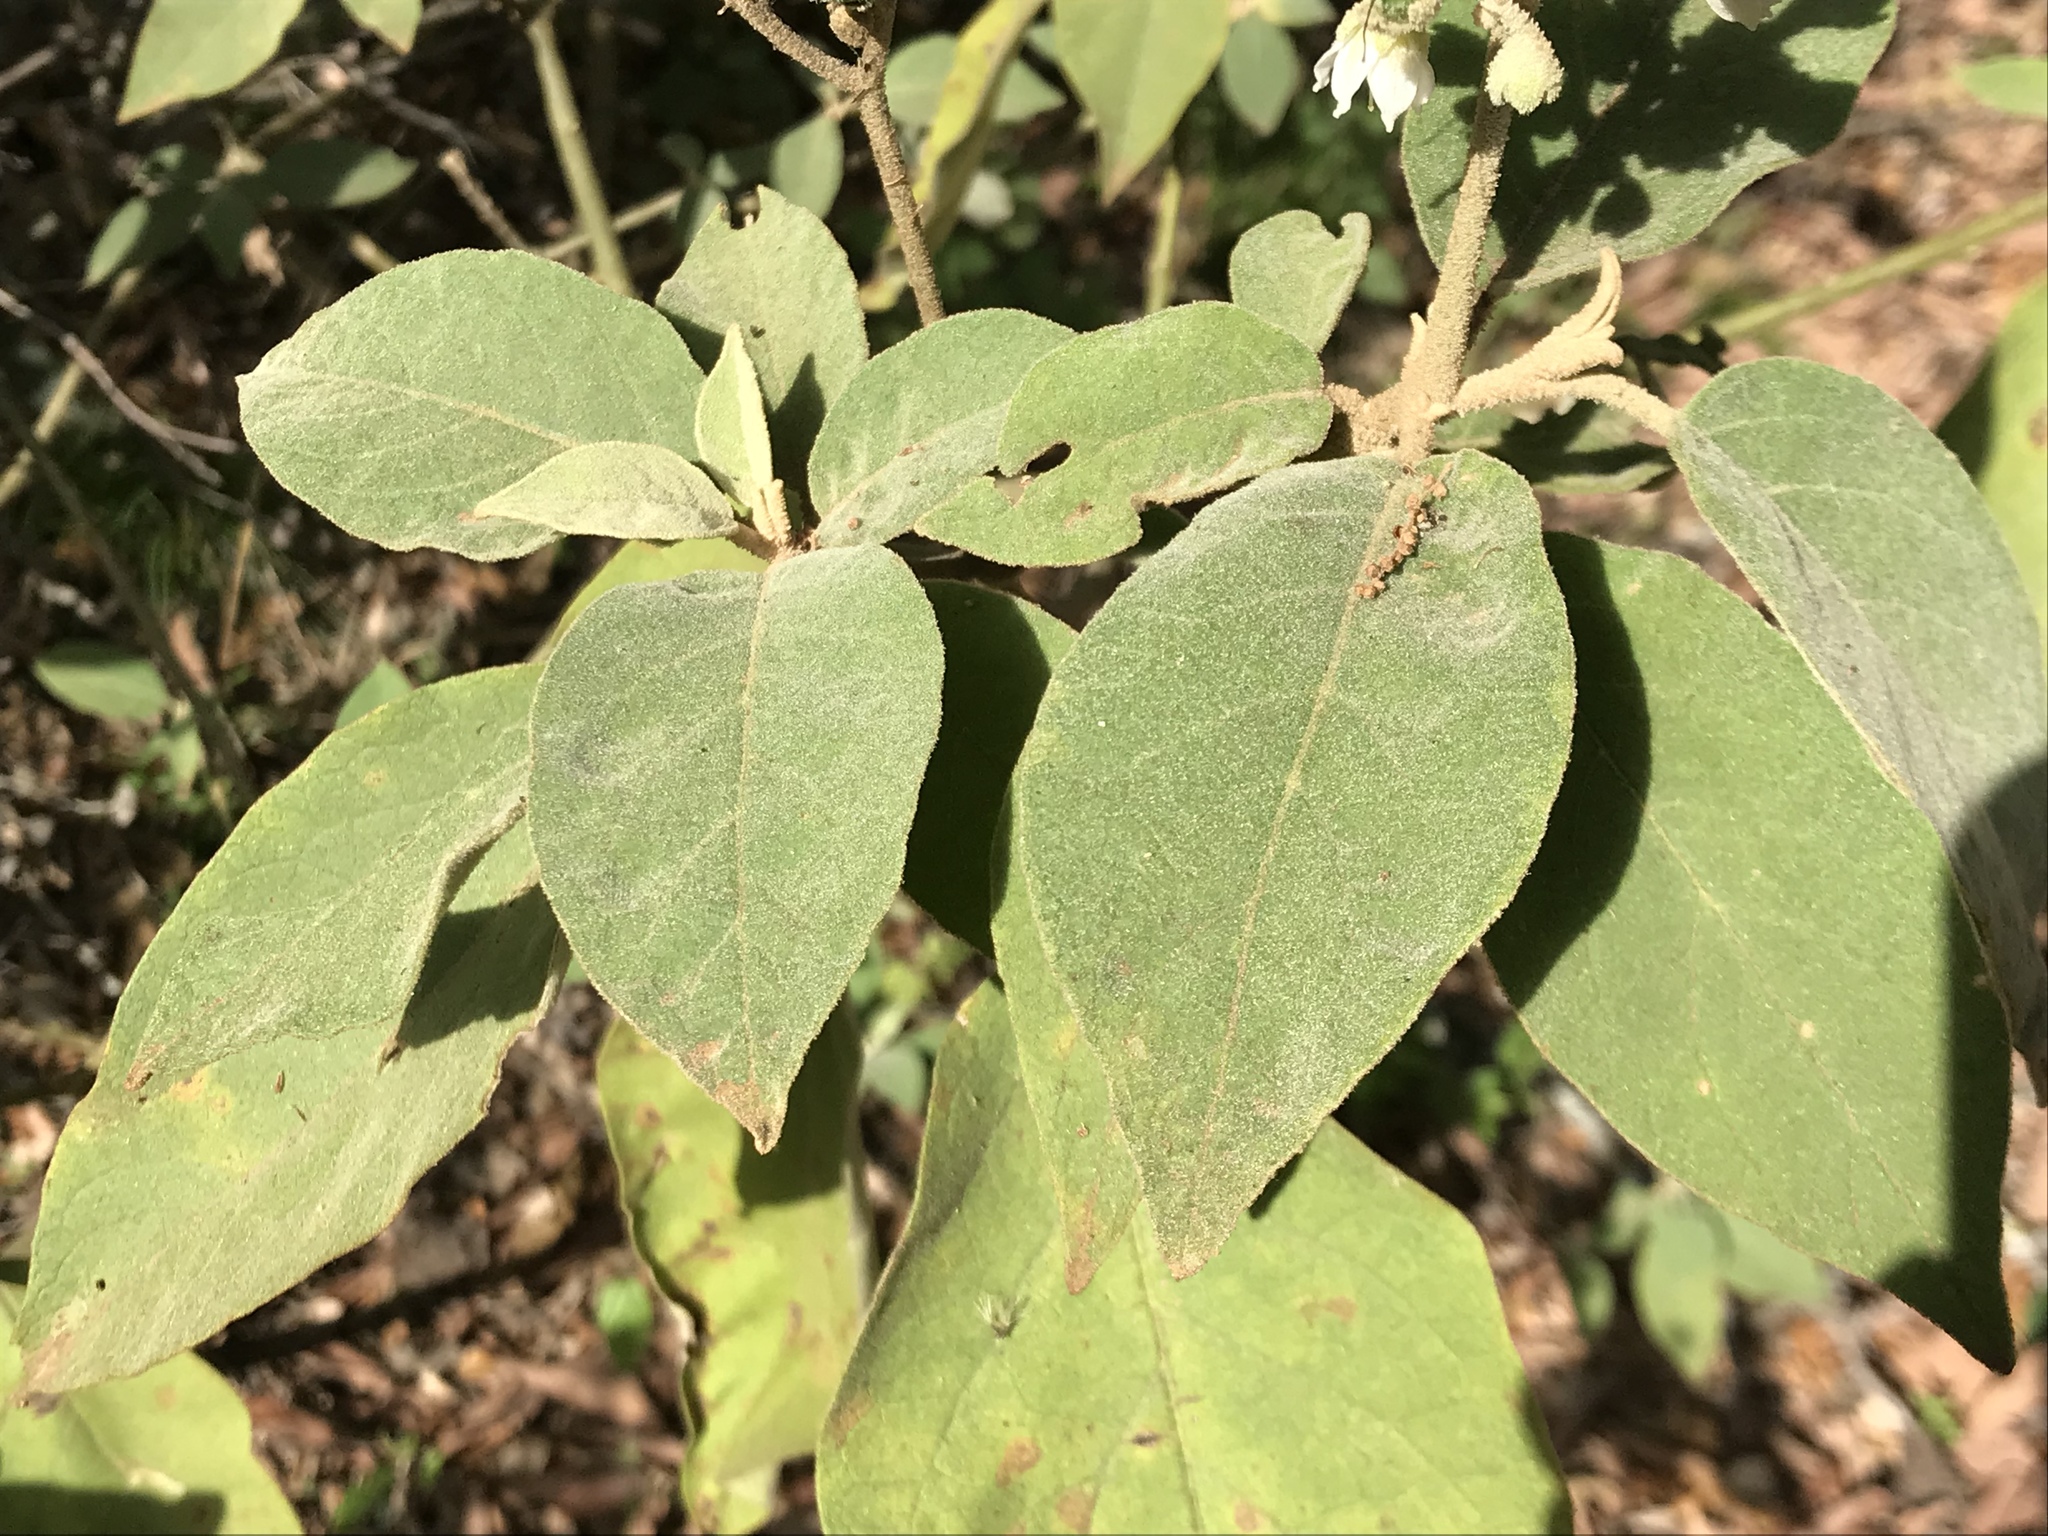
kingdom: Plantae
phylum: Tracheophyta
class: Magnoliopsida
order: Solanales
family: Solanaceae
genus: Solanum
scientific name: Solanum erianthum
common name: Tobacco-tree
